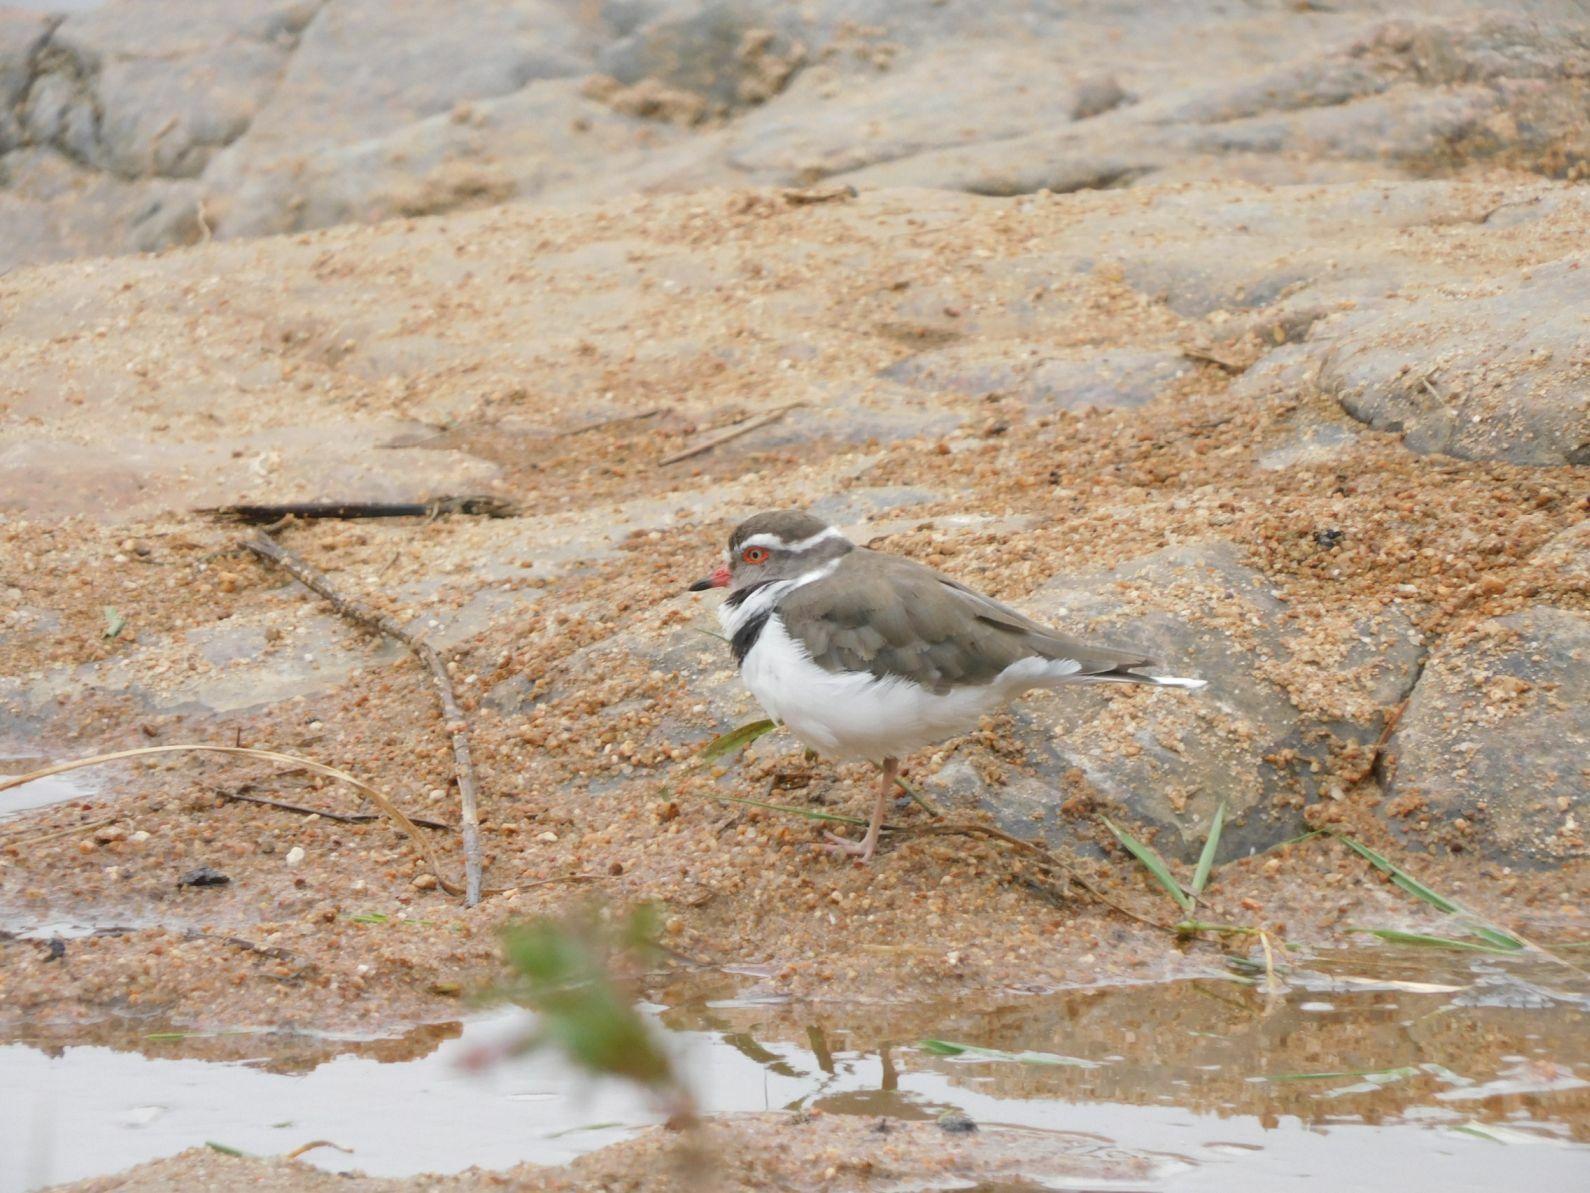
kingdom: Animalia
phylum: Chordata
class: Aves
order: Charadriiformes
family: Charadriidae
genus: Charadrius
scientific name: Charadrius tricollaris
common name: Three-banded plover
